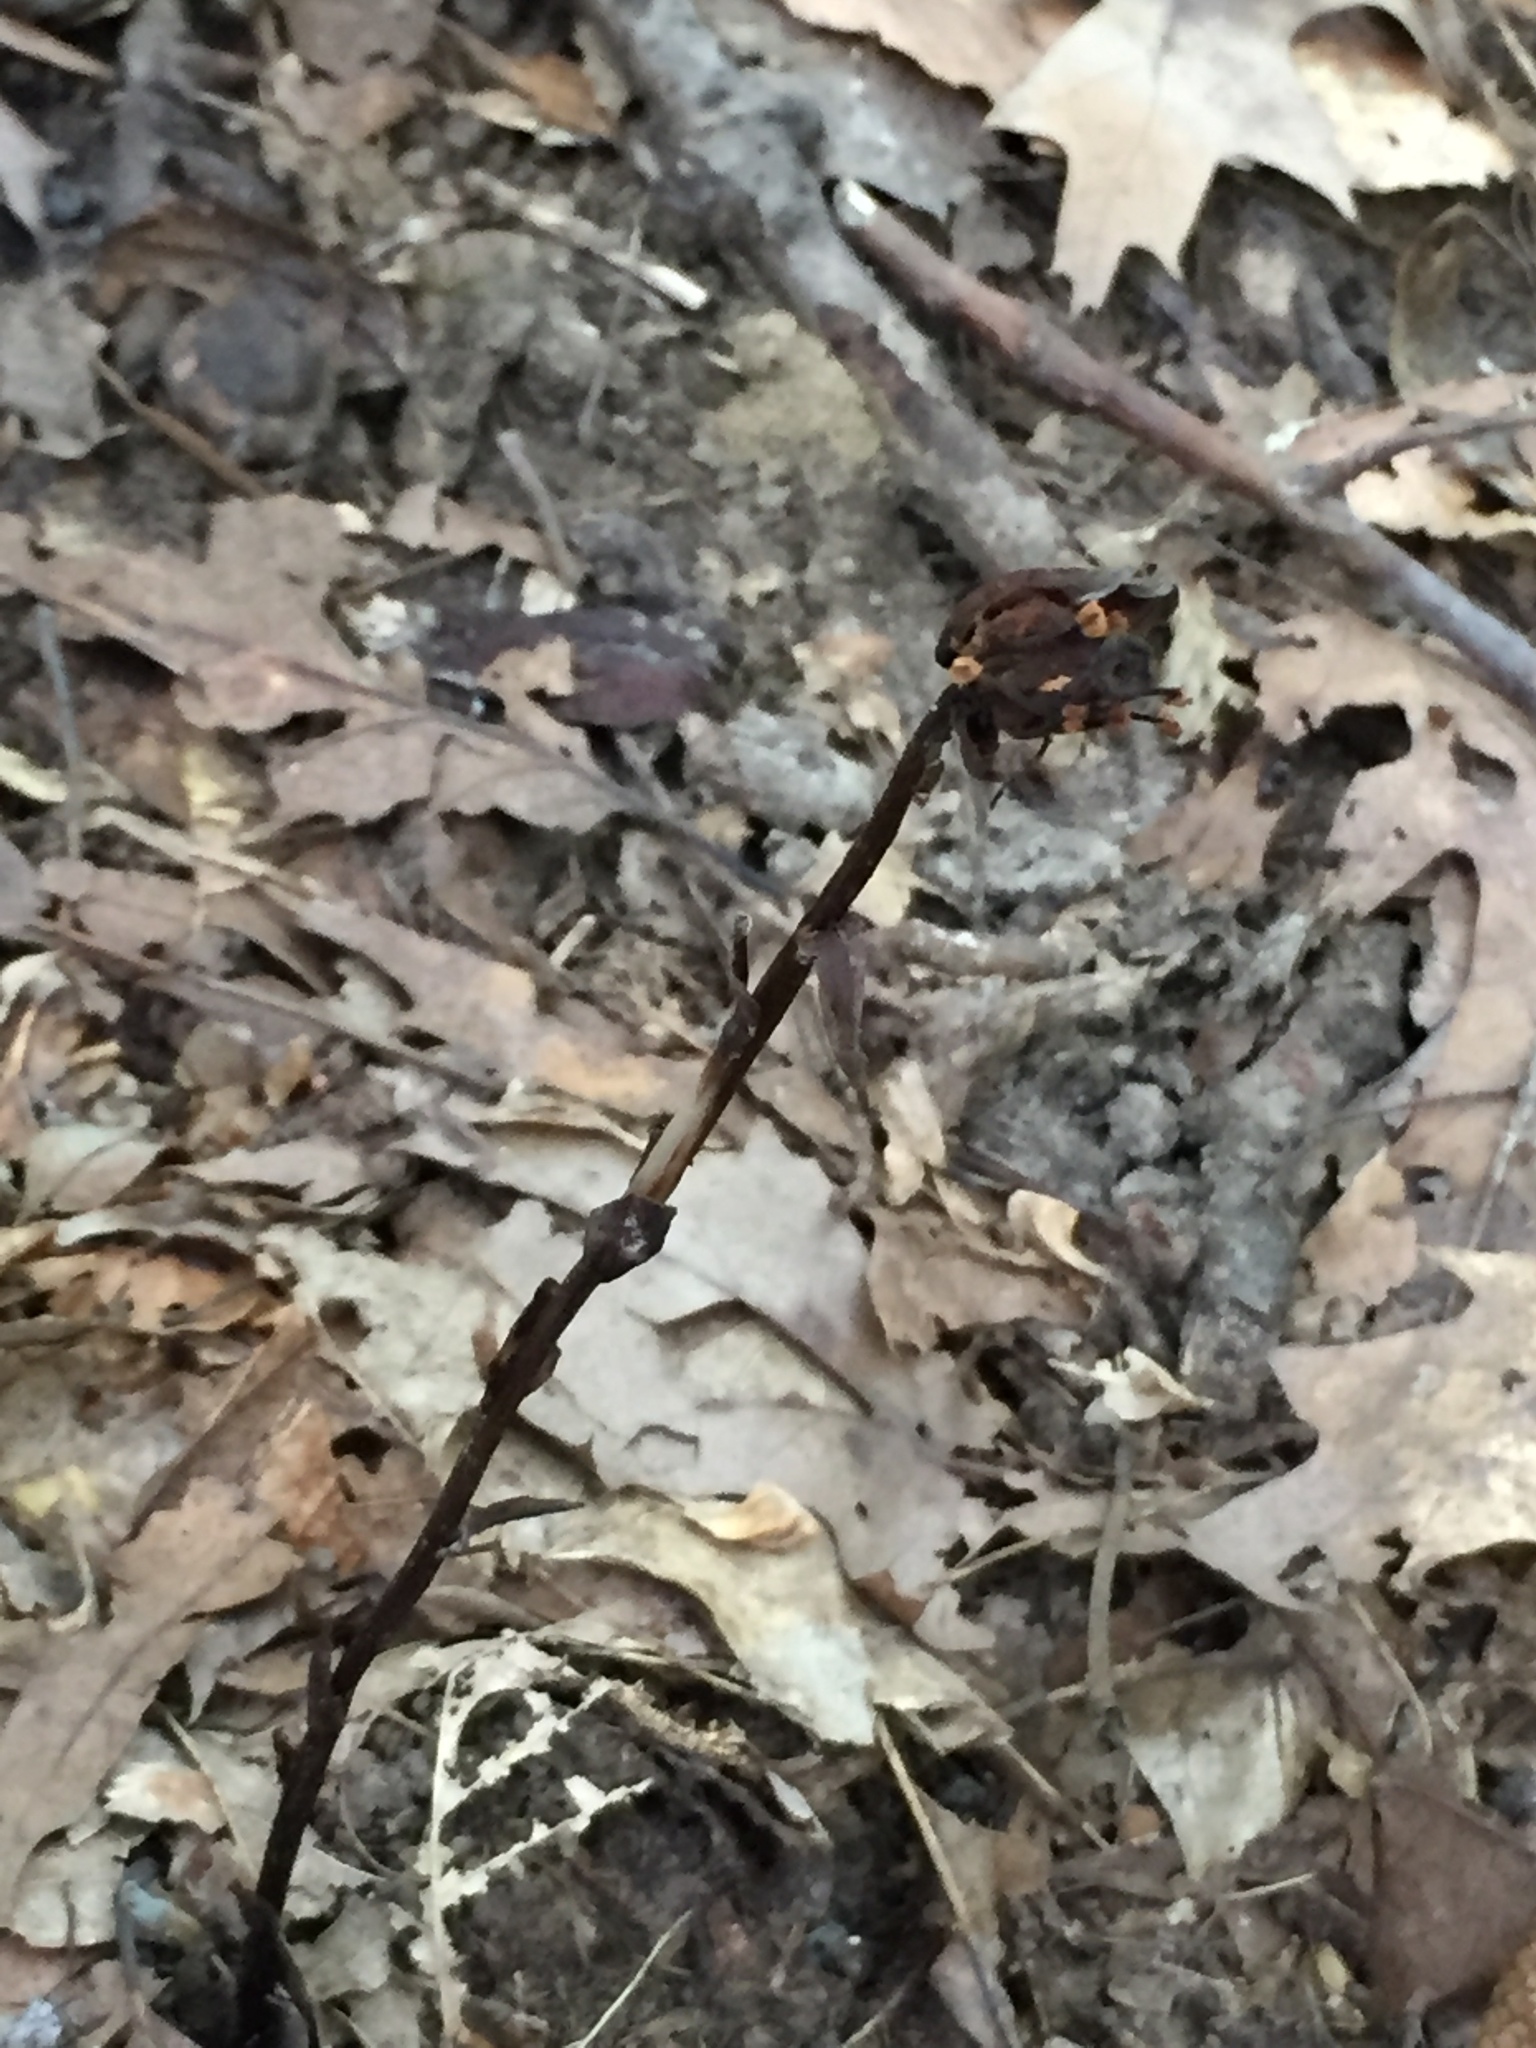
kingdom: Plantae
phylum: Tracheophyta
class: Magnoliopsida
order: Ericales
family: Ericaceae
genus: Monotropa
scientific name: Monotropa uniflora
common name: Convulsion root
